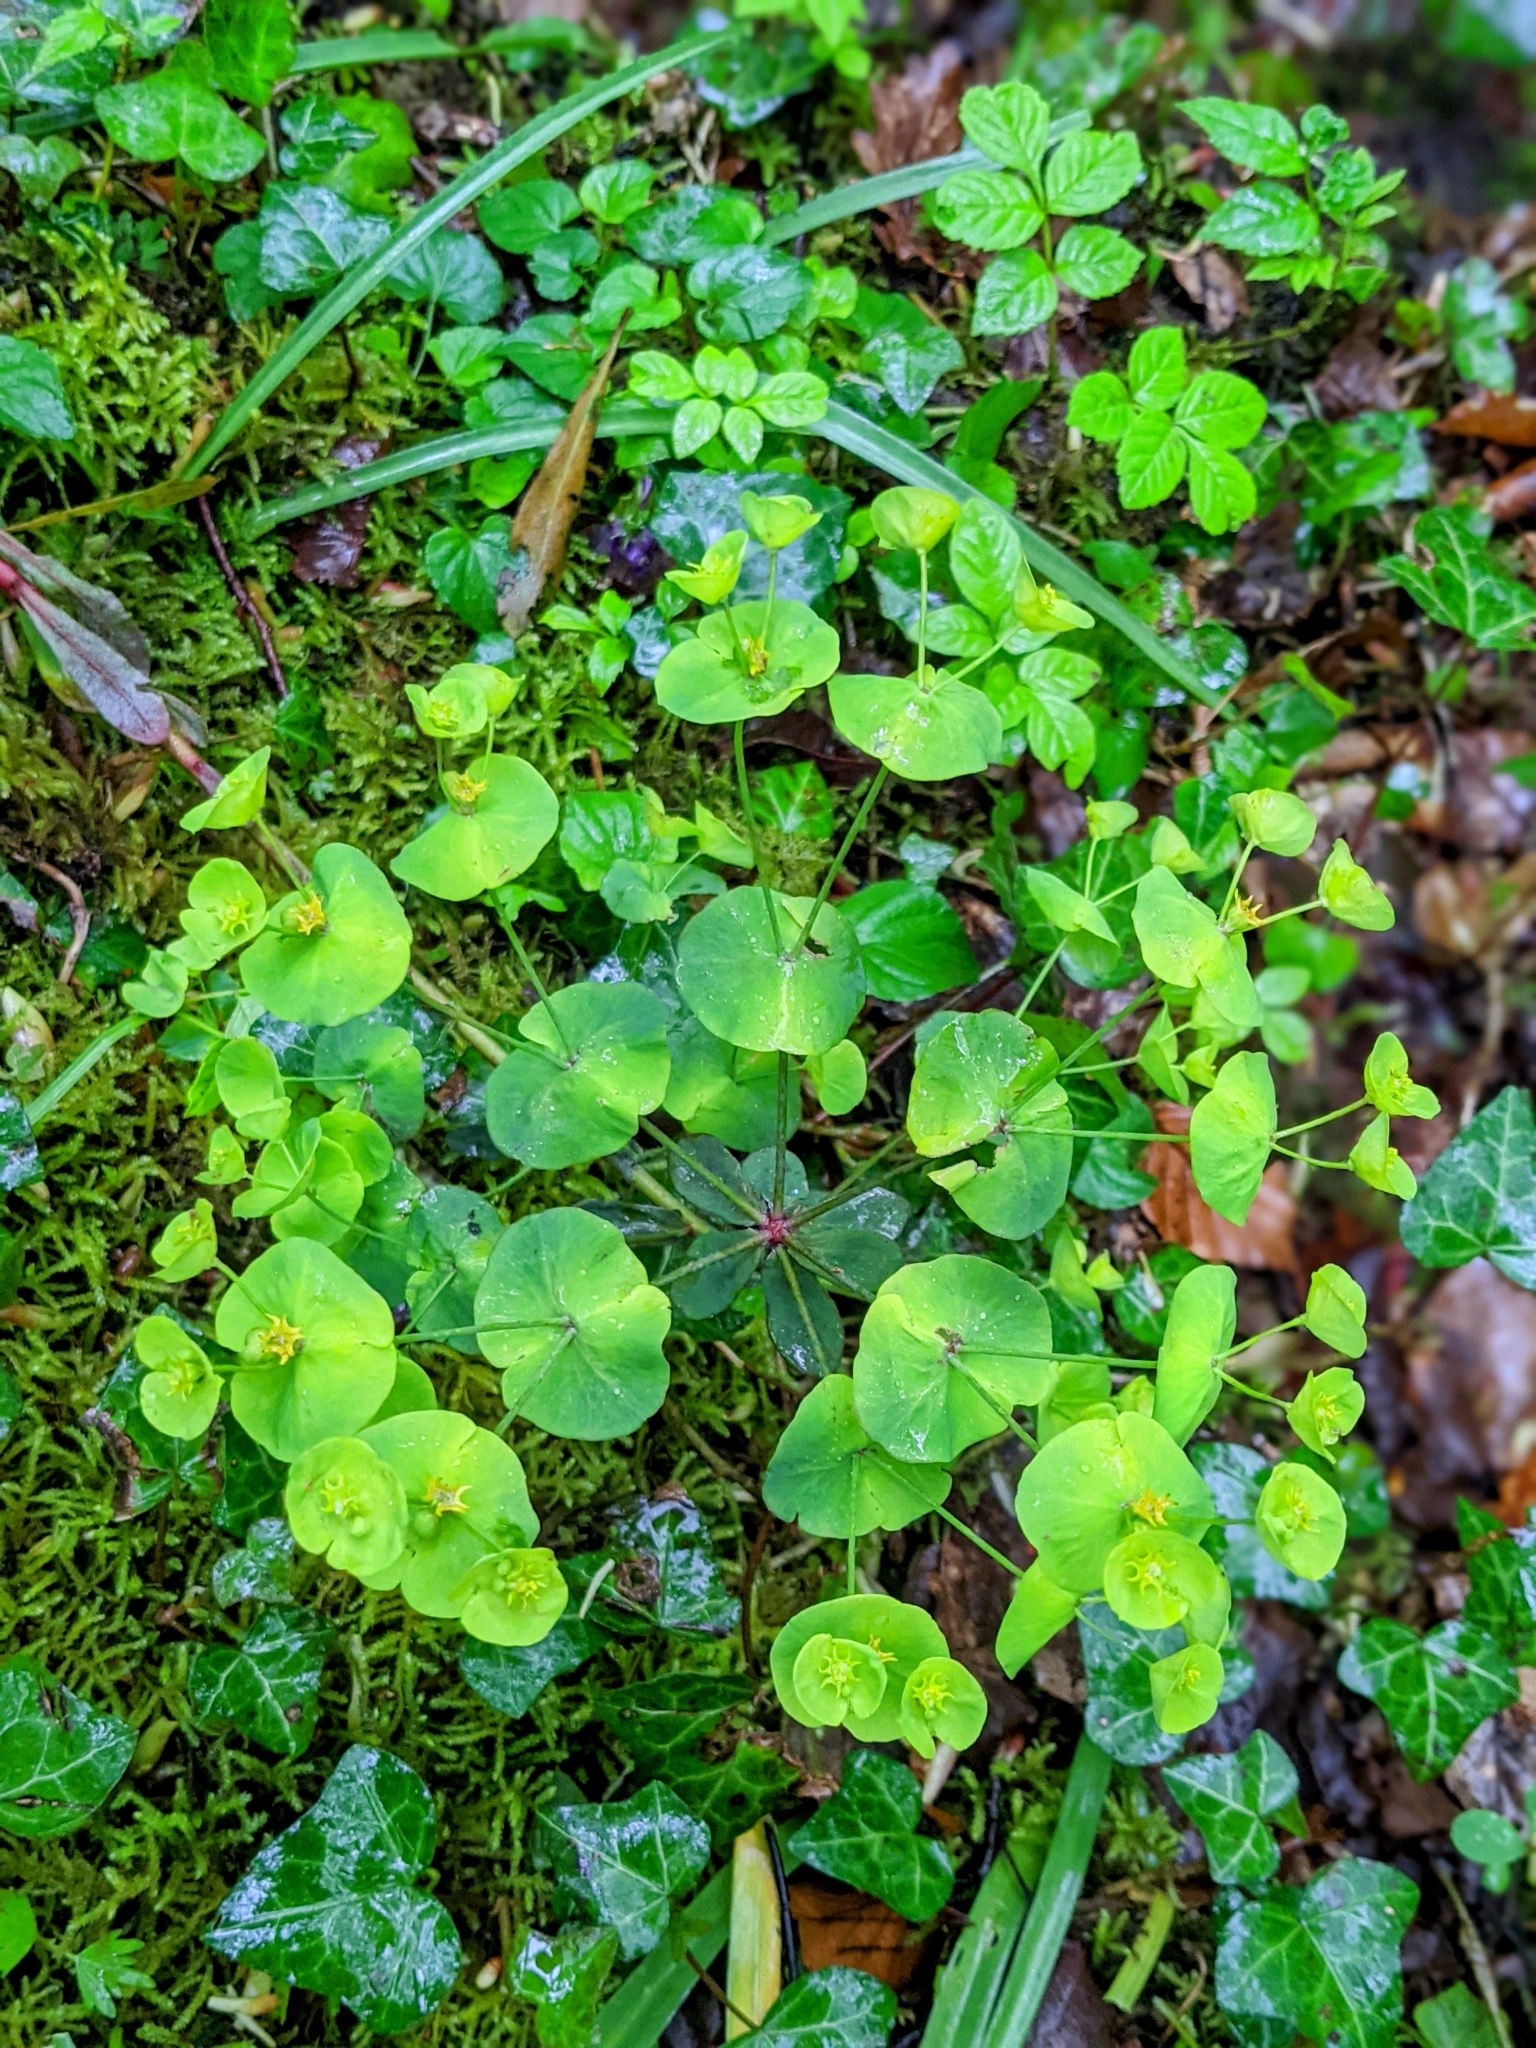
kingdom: Plantae
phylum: Tracheophyta
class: Magnoliopsida
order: Malpighiales
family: Euphorbiaceae
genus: Euphorbia
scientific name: Euphorbia amygdaloides
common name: Wood spurge
